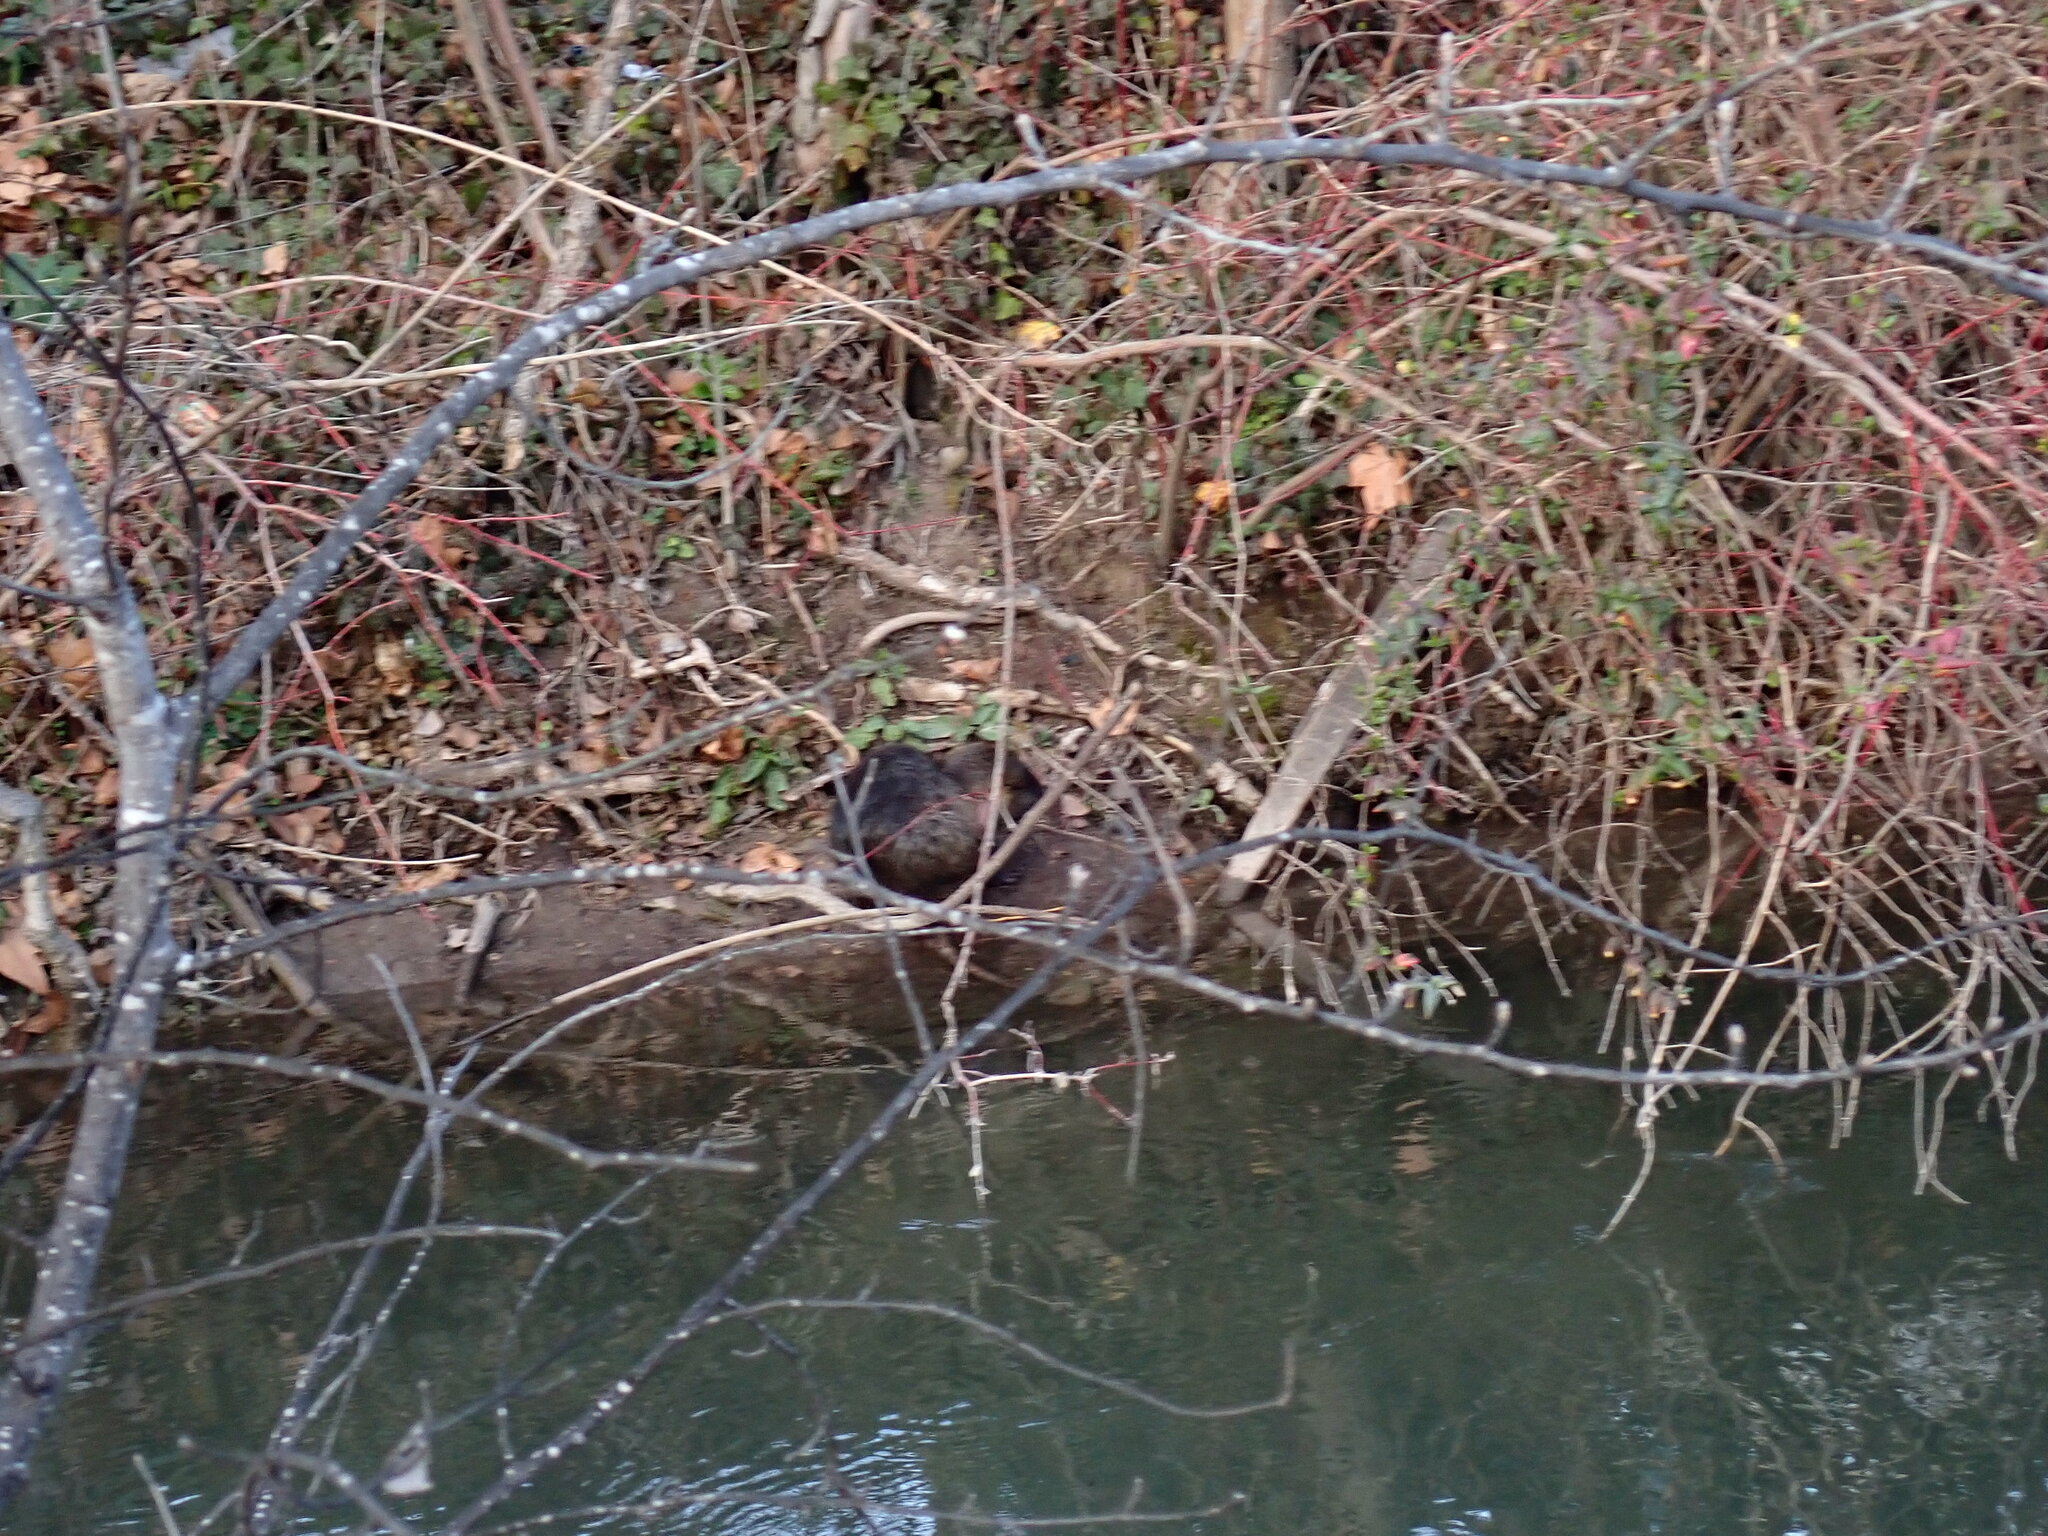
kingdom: Animalia
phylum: Chordata
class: Mammalia
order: Rodentia
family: Myocastoridae
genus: Myocastor
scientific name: Myocastor coypus
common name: Coypu
